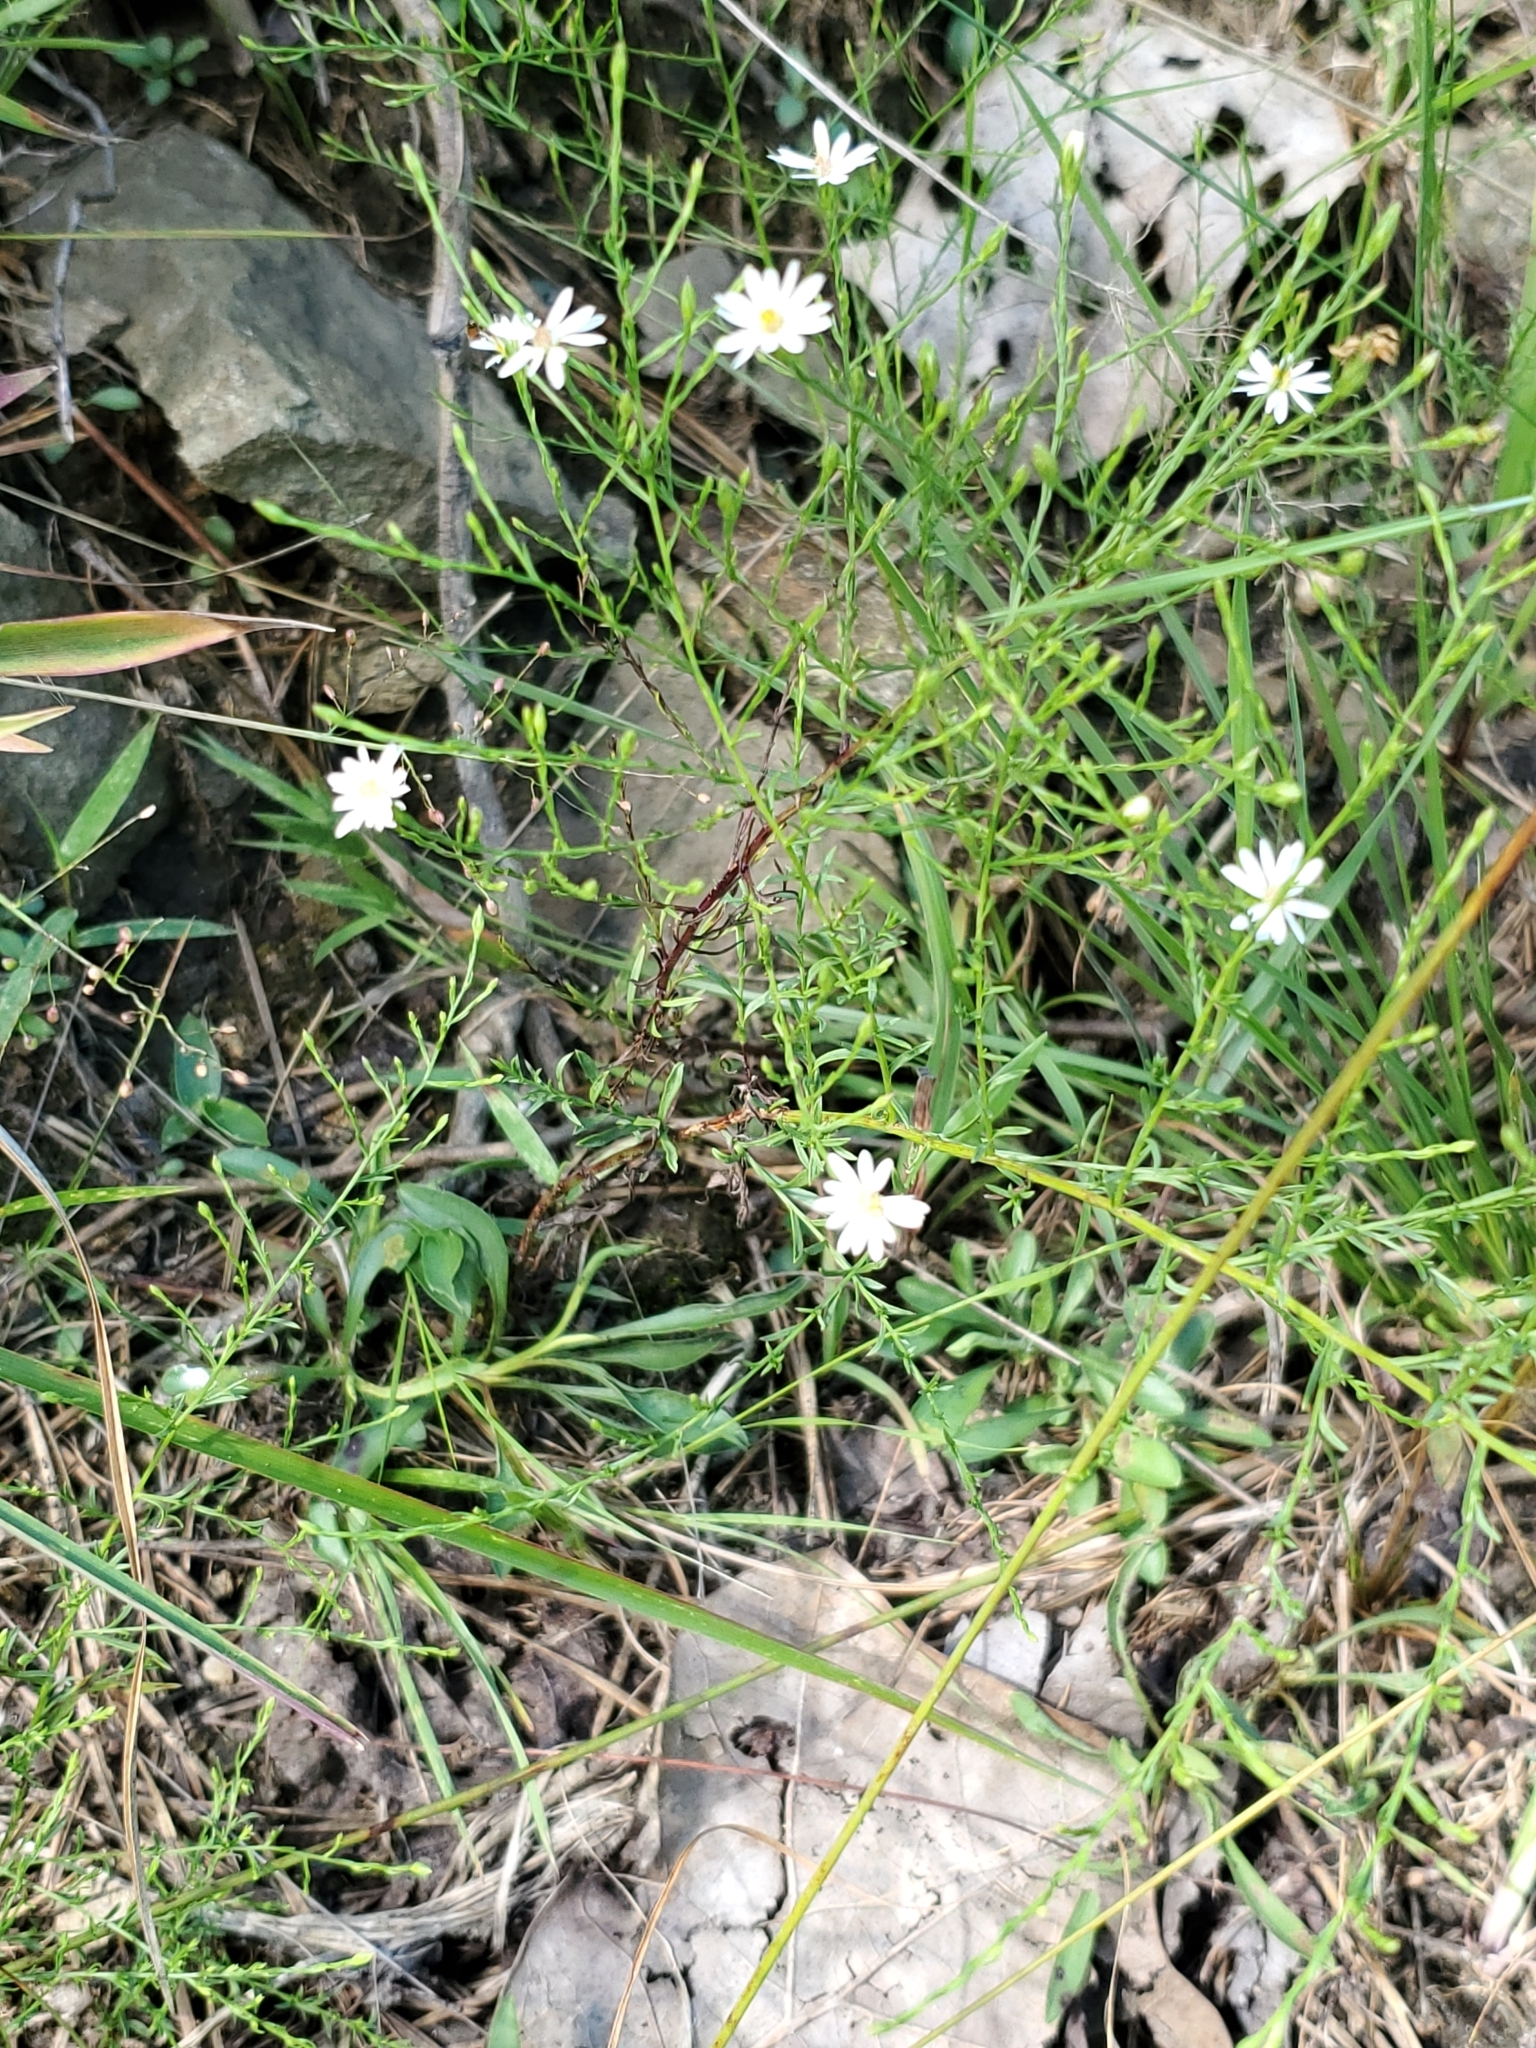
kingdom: Plantae
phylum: Tracheophyta
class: Magnoliopsida
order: Asterales
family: Asteraceae
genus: Symphyotrichum
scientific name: Symphyotrichum depauperatum
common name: Serpentine aster
